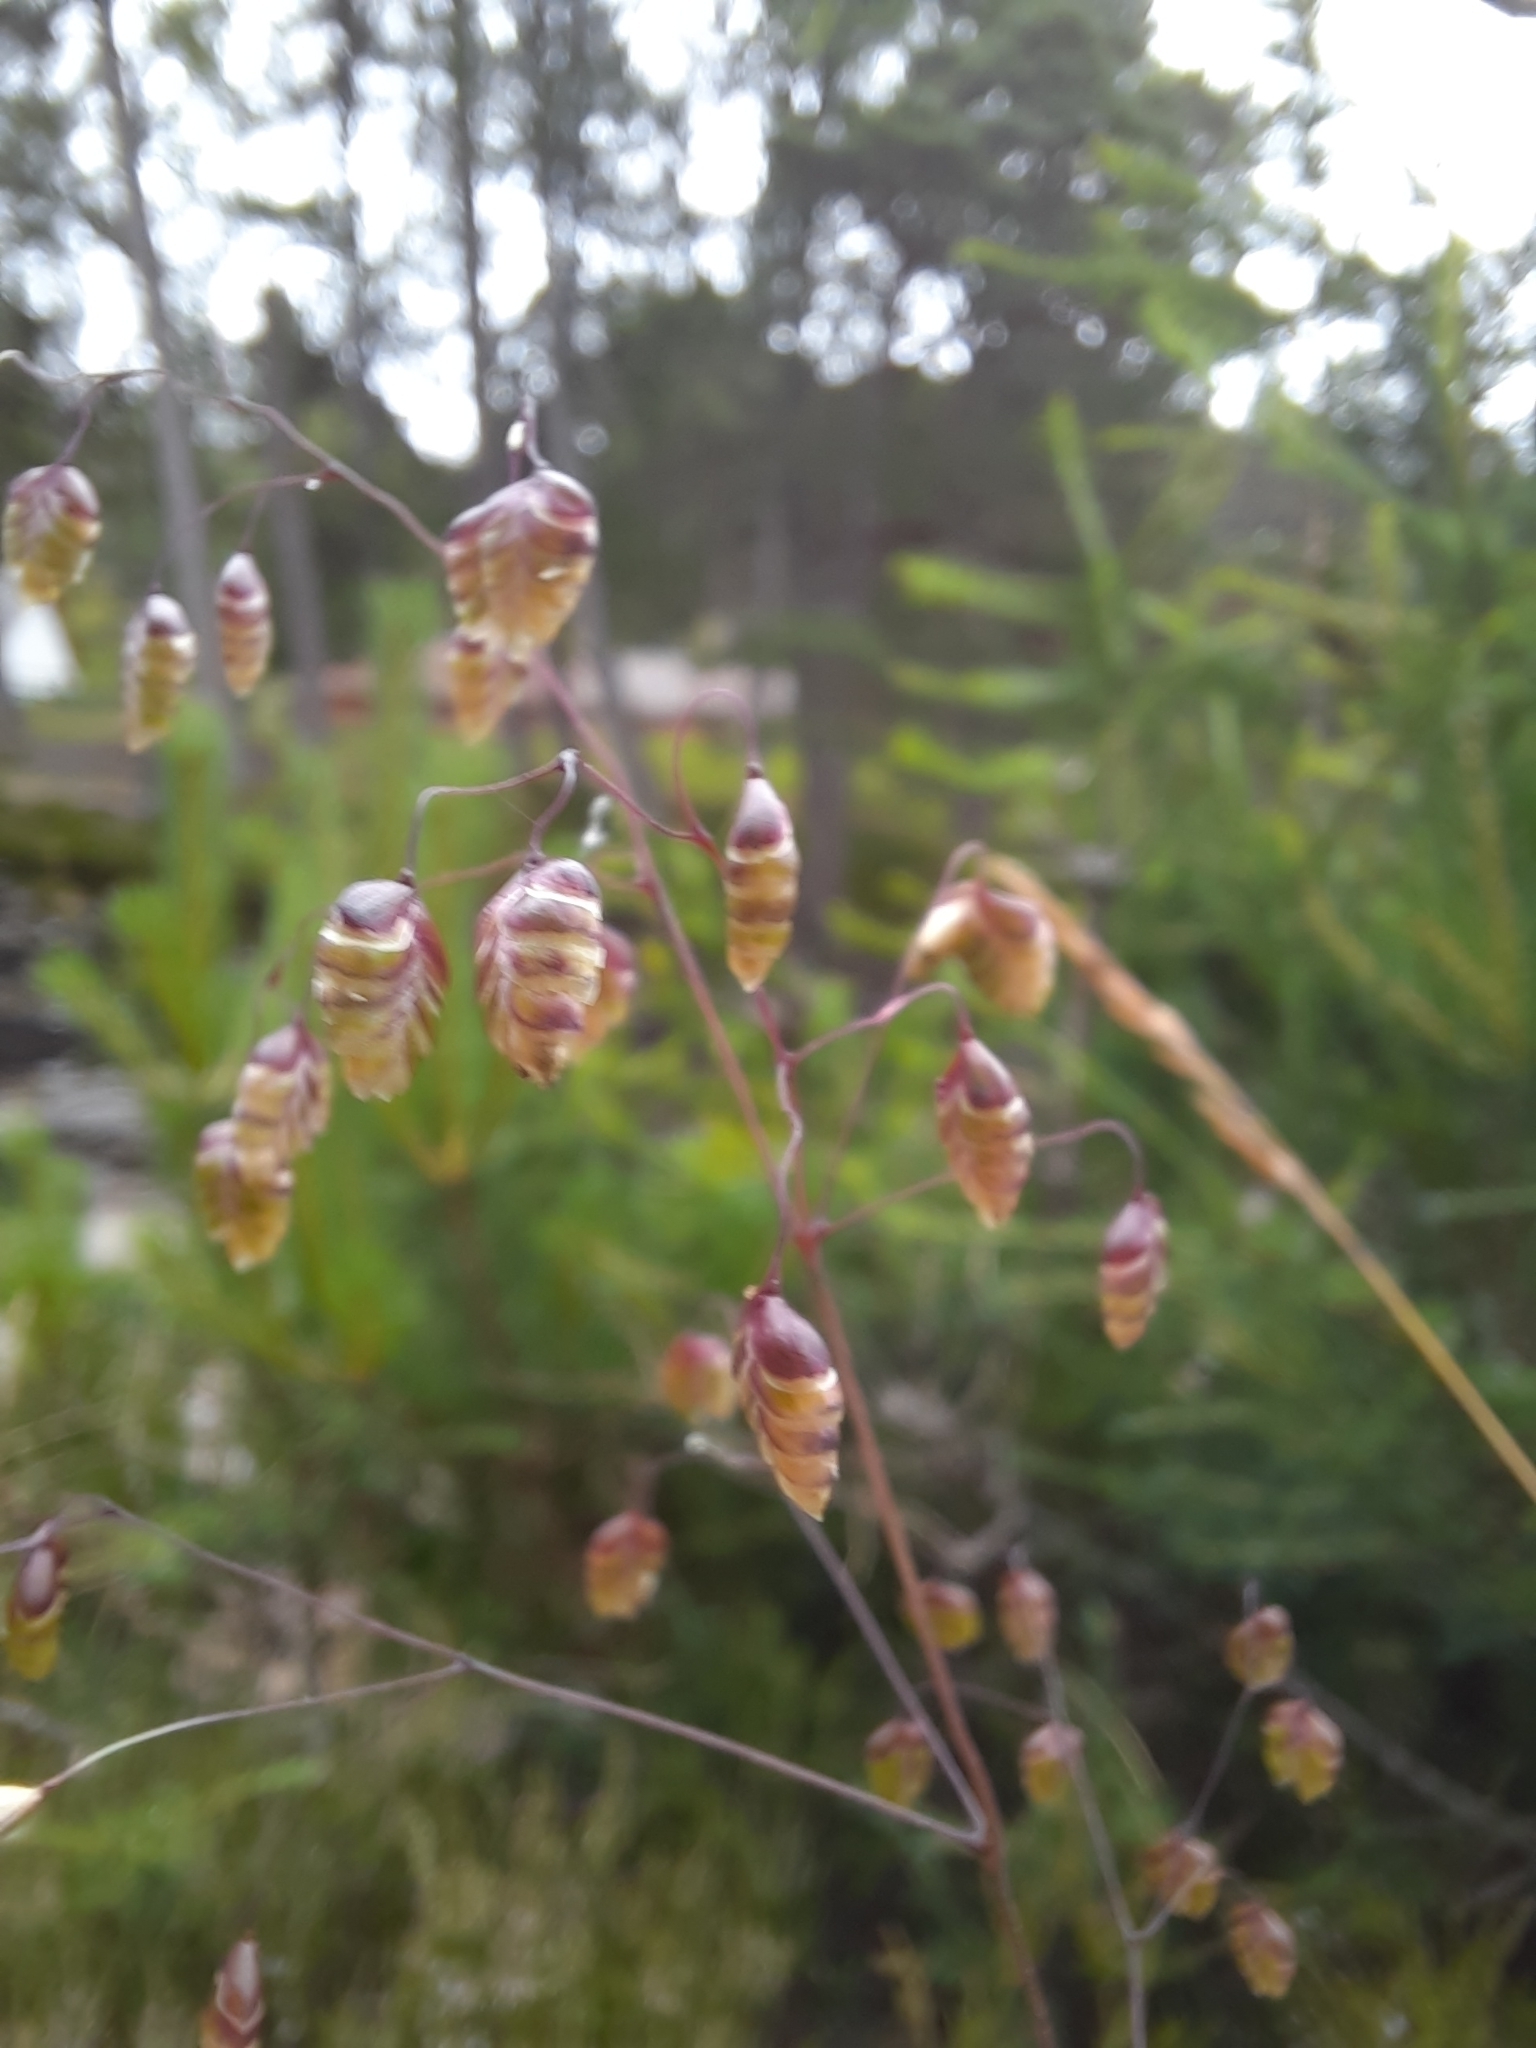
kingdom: Plantae
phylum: Tracheophyta
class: Liliopsida
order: Poales
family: Poaceae
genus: Briza
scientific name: Briza media
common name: Quaking grass
